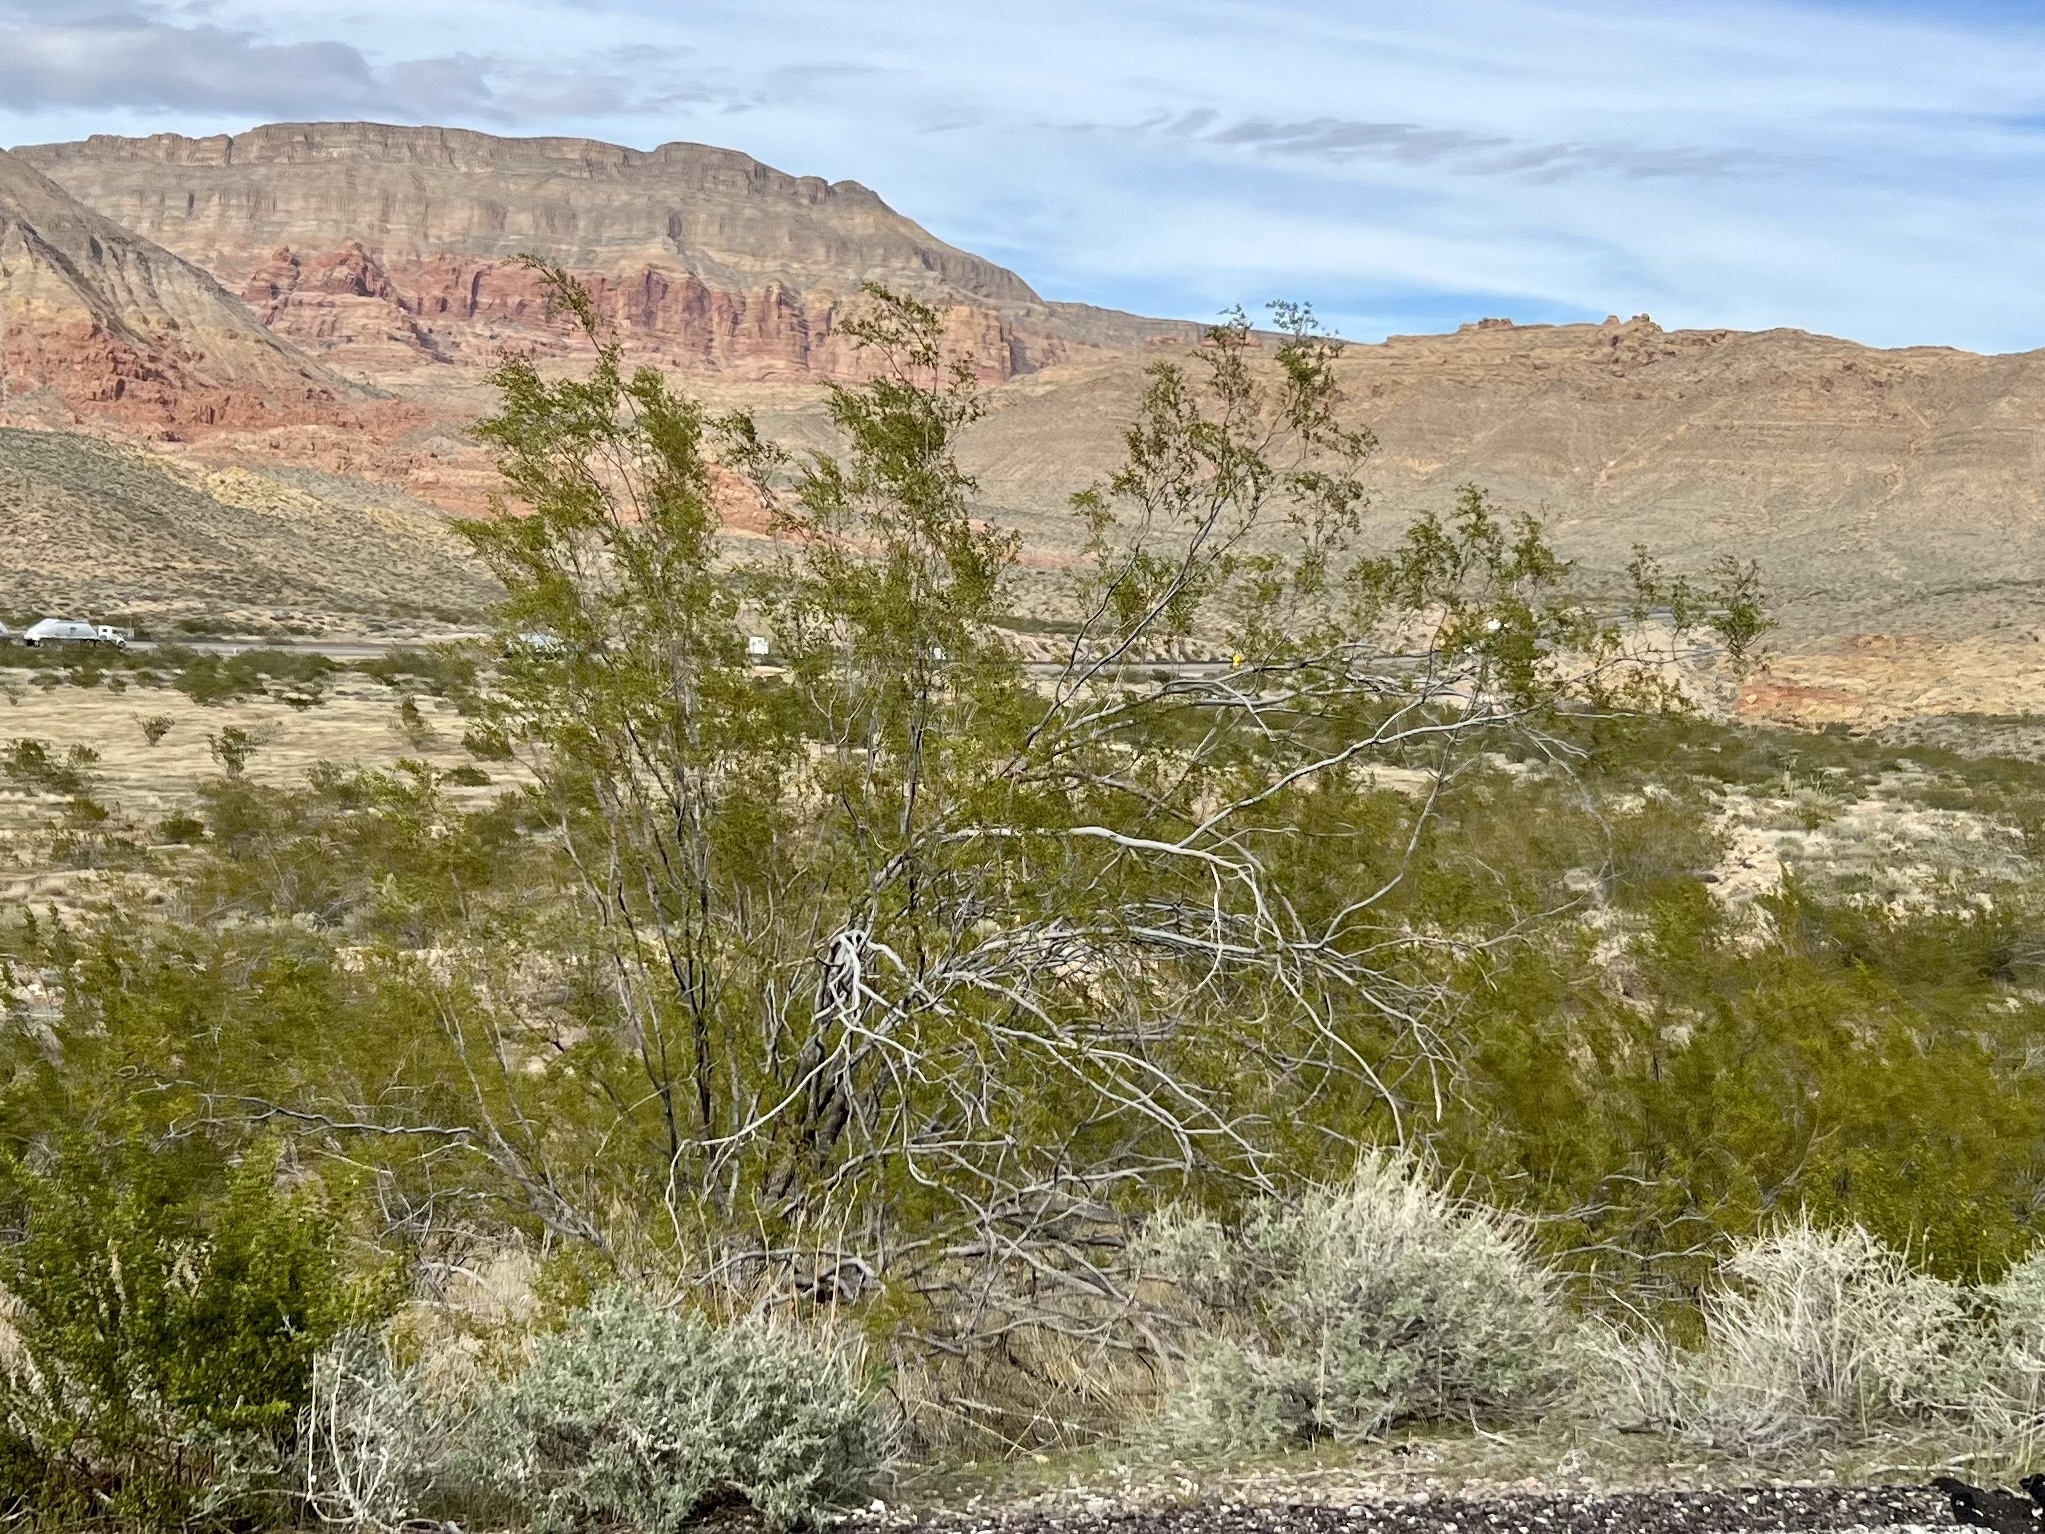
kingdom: Plantae
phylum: Tracheophyta
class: Magnoliopsida
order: Zygophyllales
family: Zygophyllaceae
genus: Larrea
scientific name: Larrea tridentata
